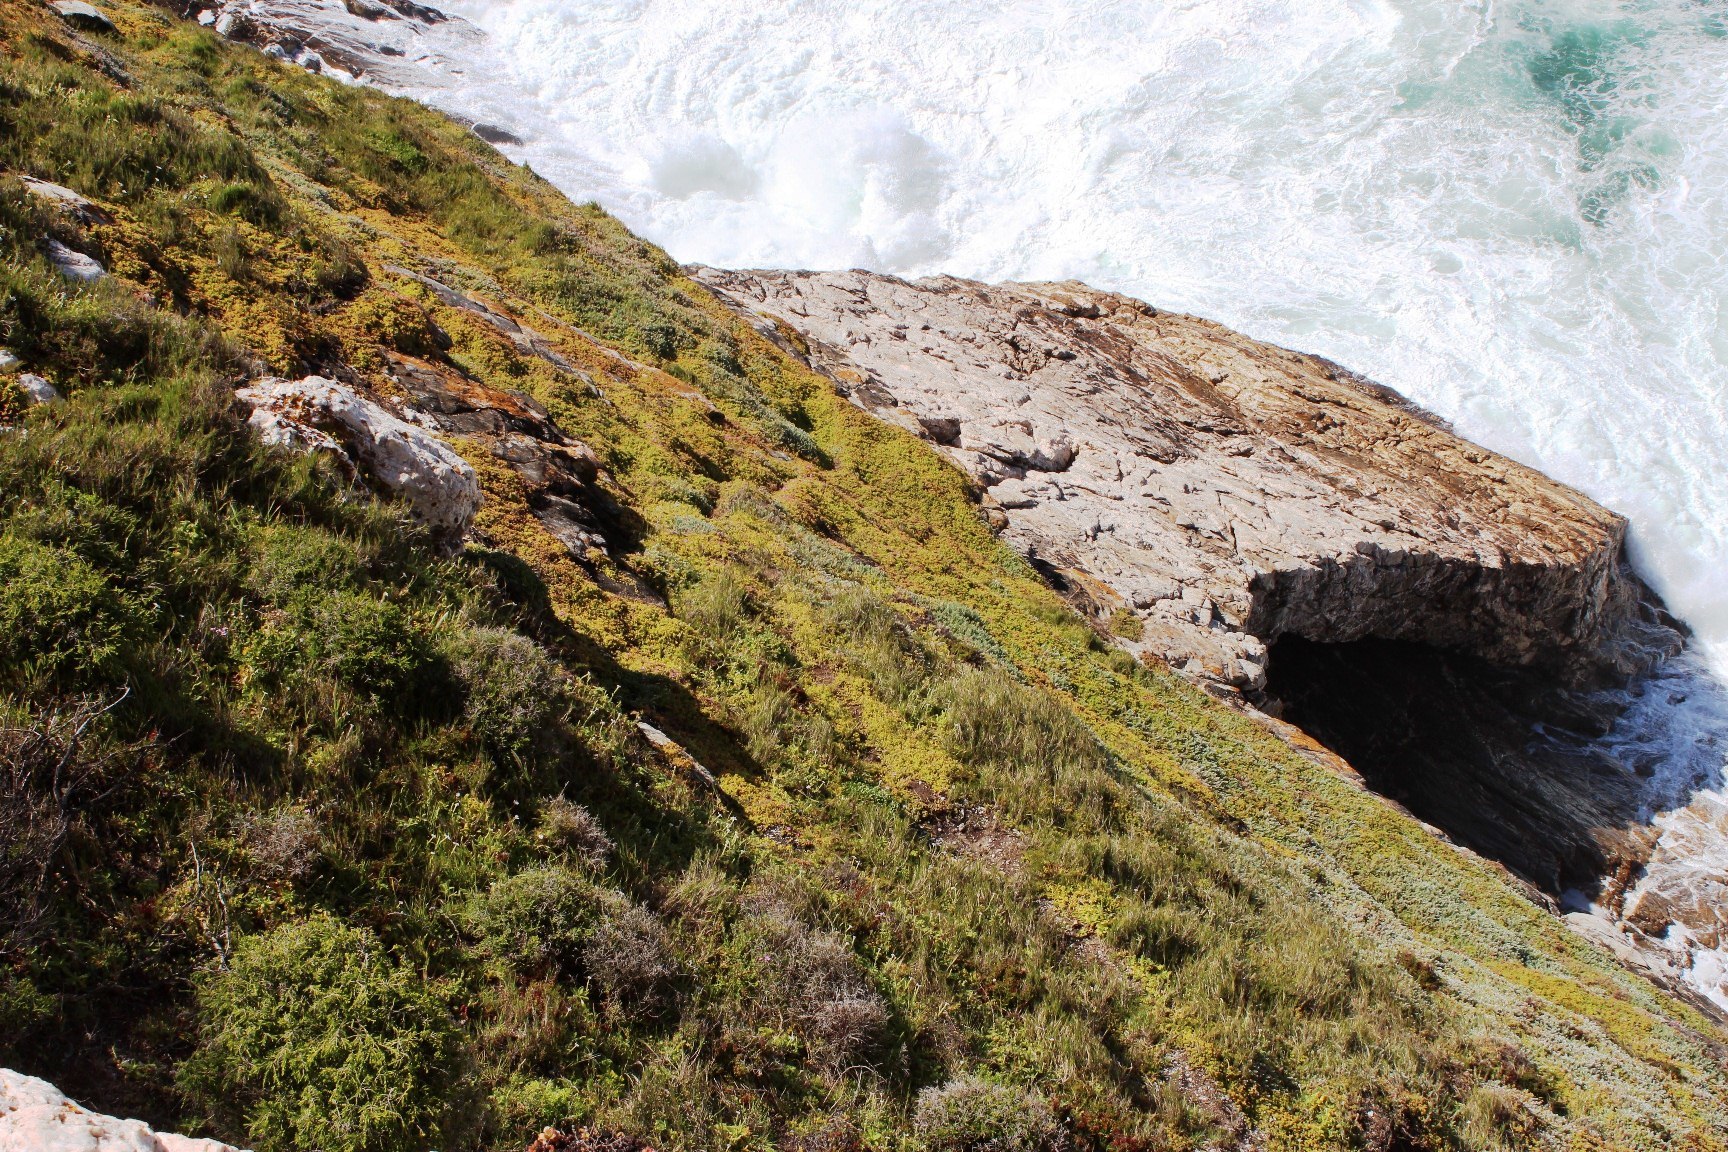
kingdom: Plantae
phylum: Tracheophyta
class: Magnoliopsida
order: Caryophyllales
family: Aizoaceae
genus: Delosperma
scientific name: Delosperma patersoniae
